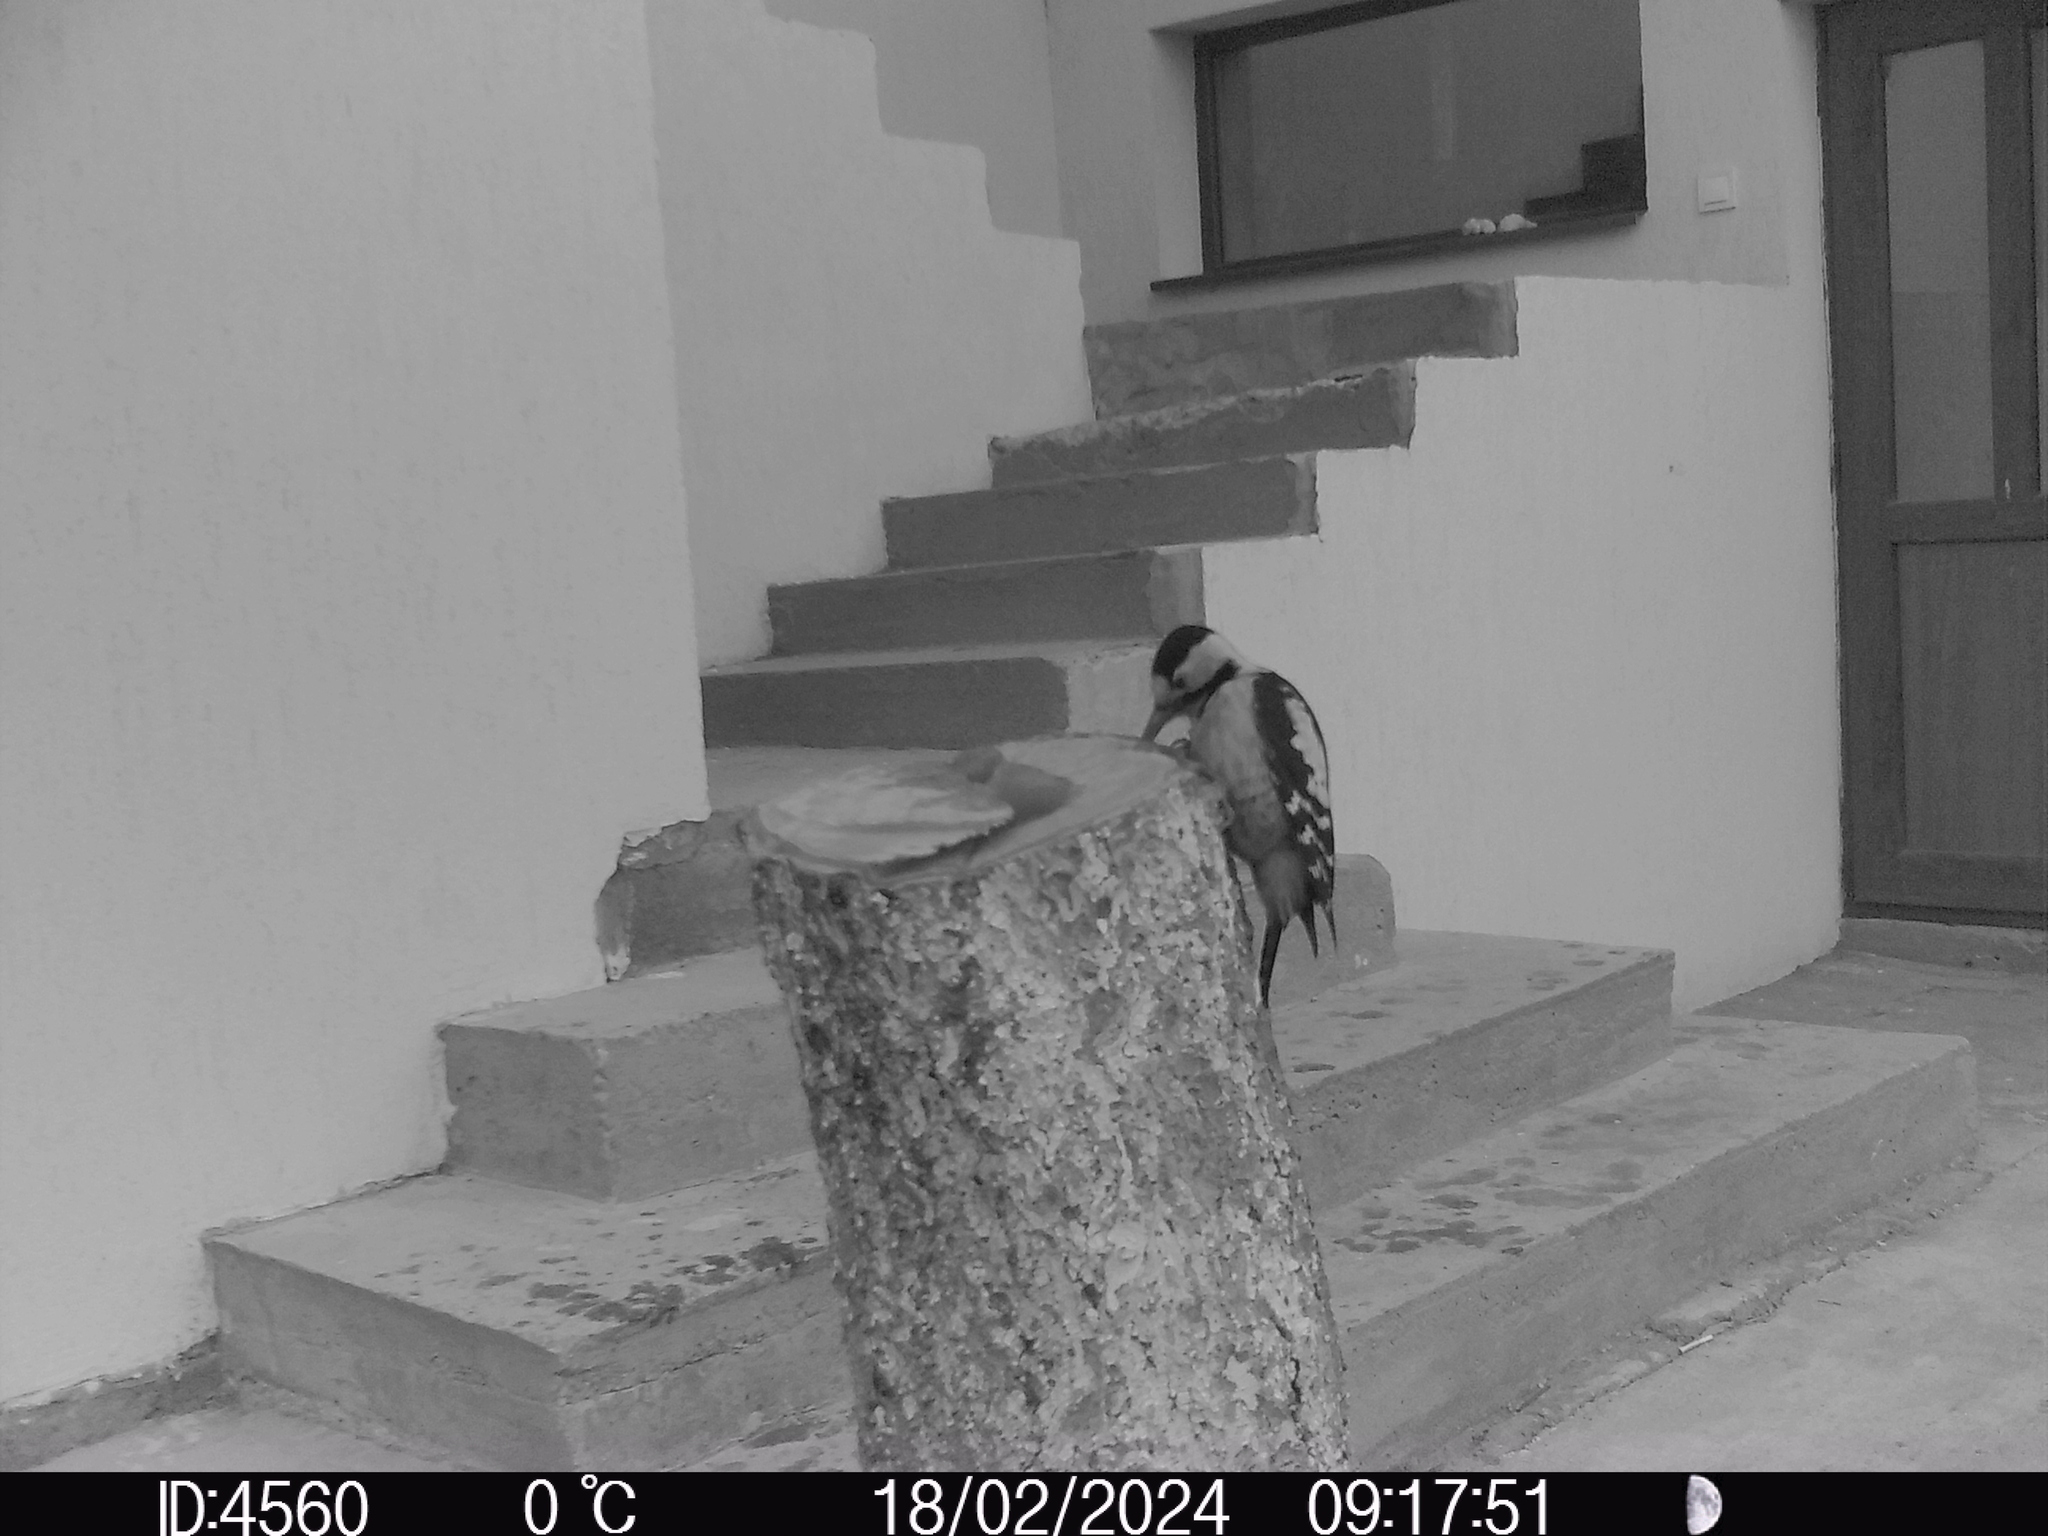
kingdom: Animalia
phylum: Chordata
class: Aves
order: Piciformes
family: Picidae
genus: Dendrocopos
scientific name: Dendrocopos syriacus
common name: Syrian woodpecker
